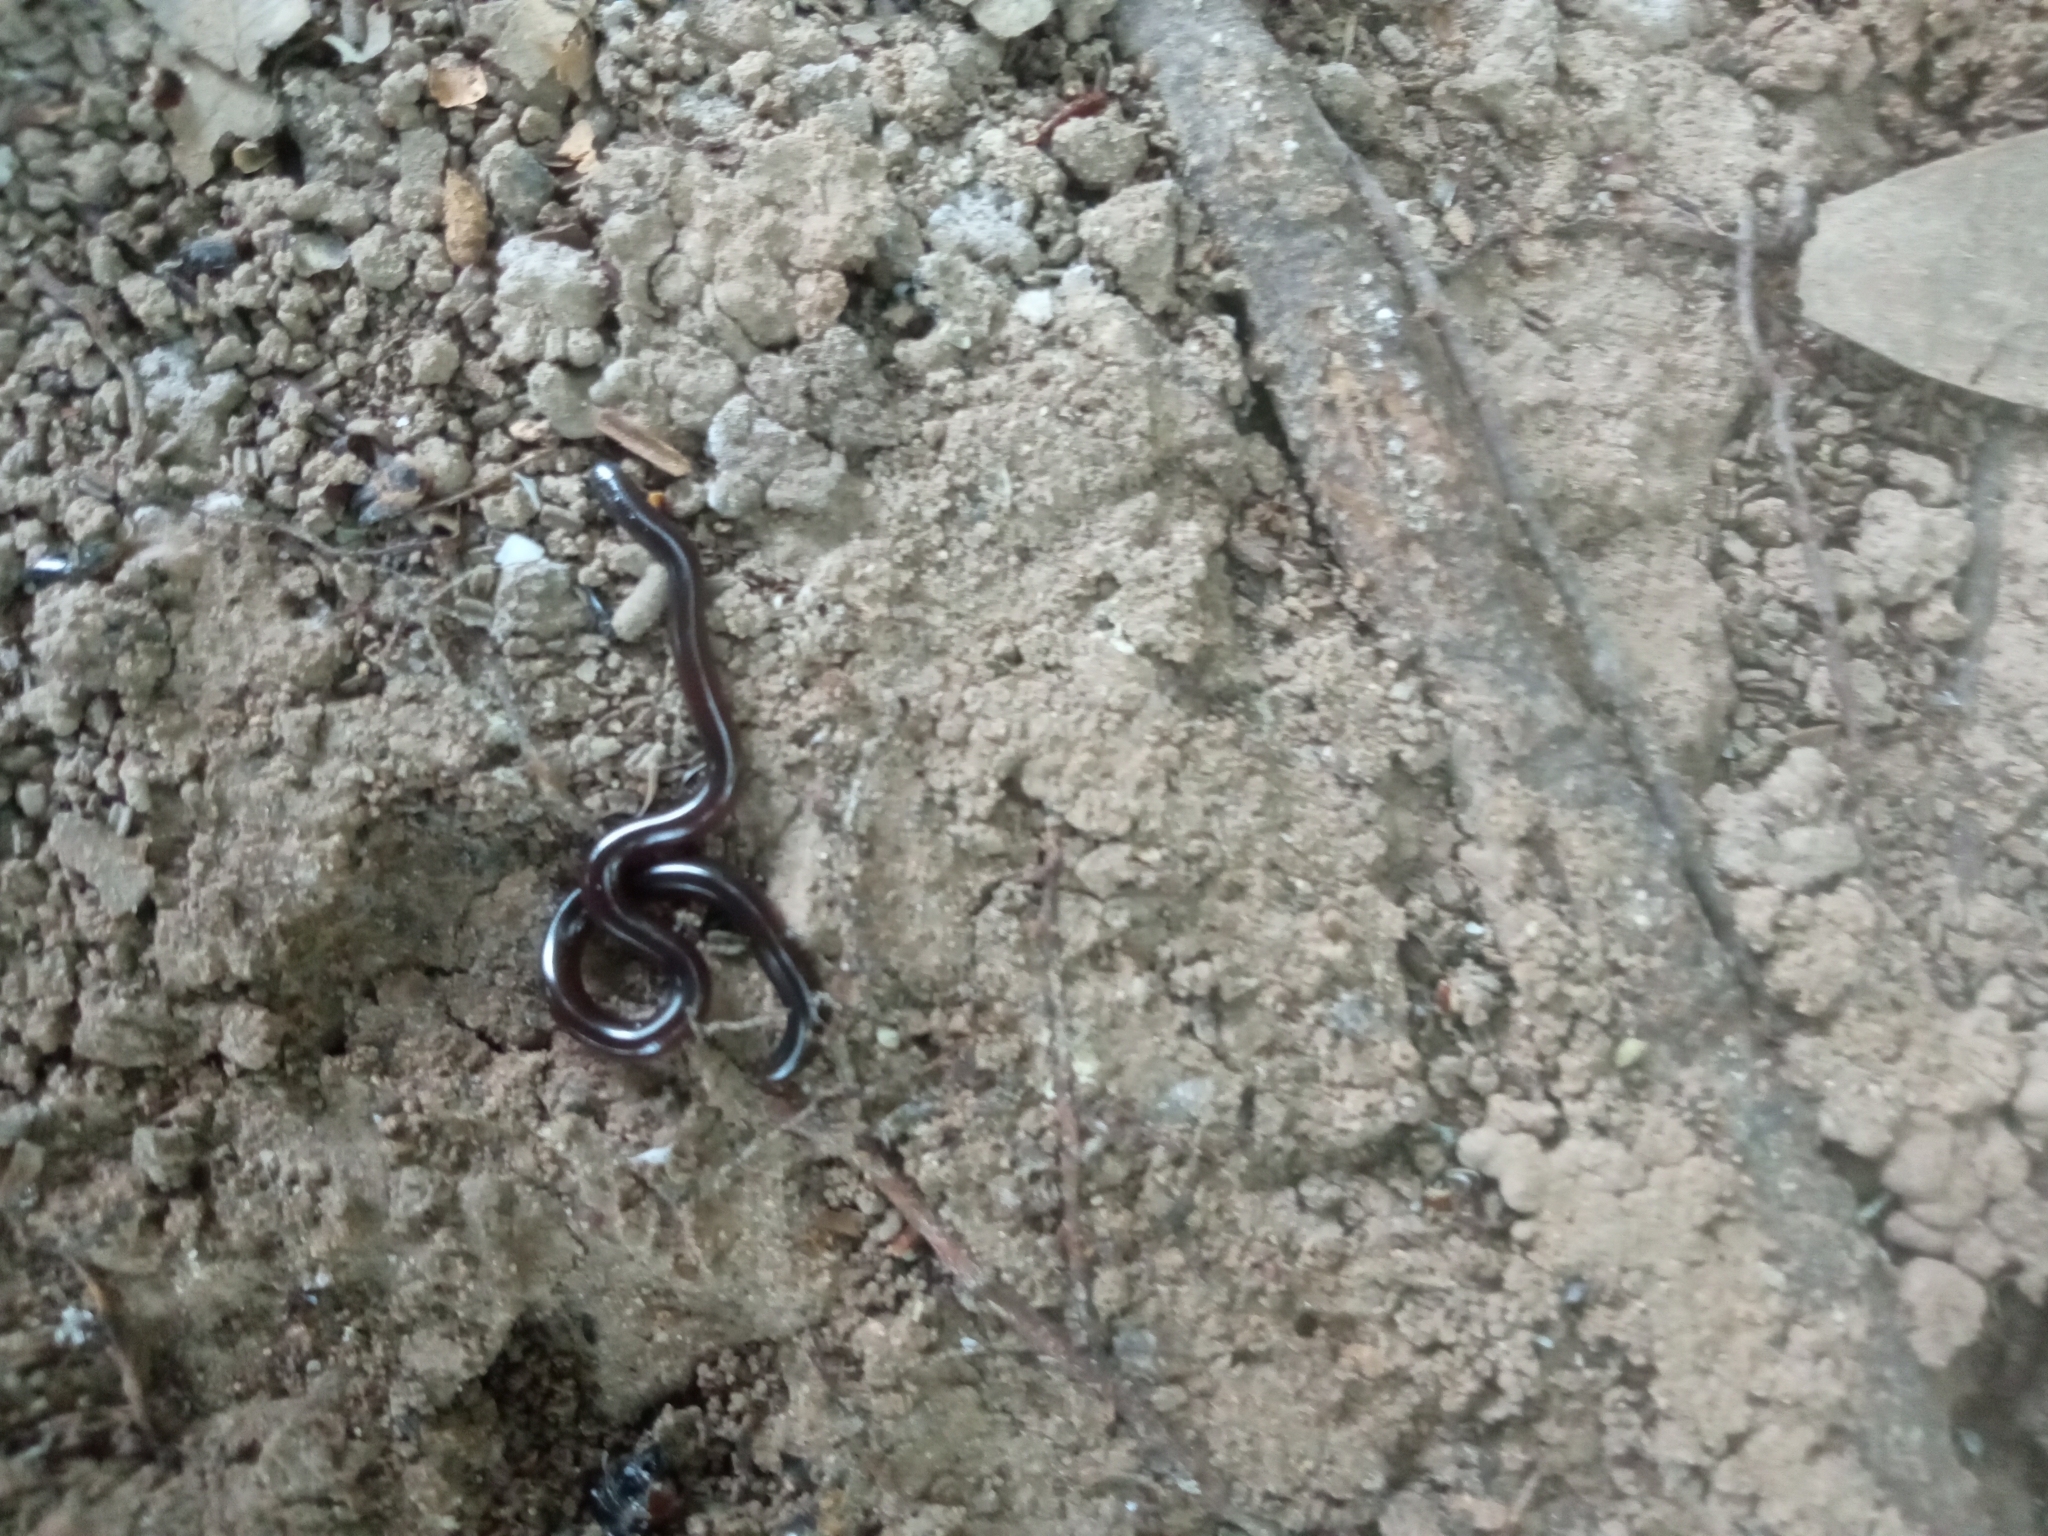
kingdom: Animalia
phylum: Chordata
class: Squamata
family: Typhlopidae
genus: Indotyphlops
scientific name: Indotyphlops braminus
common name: Brahminy blindsnake
